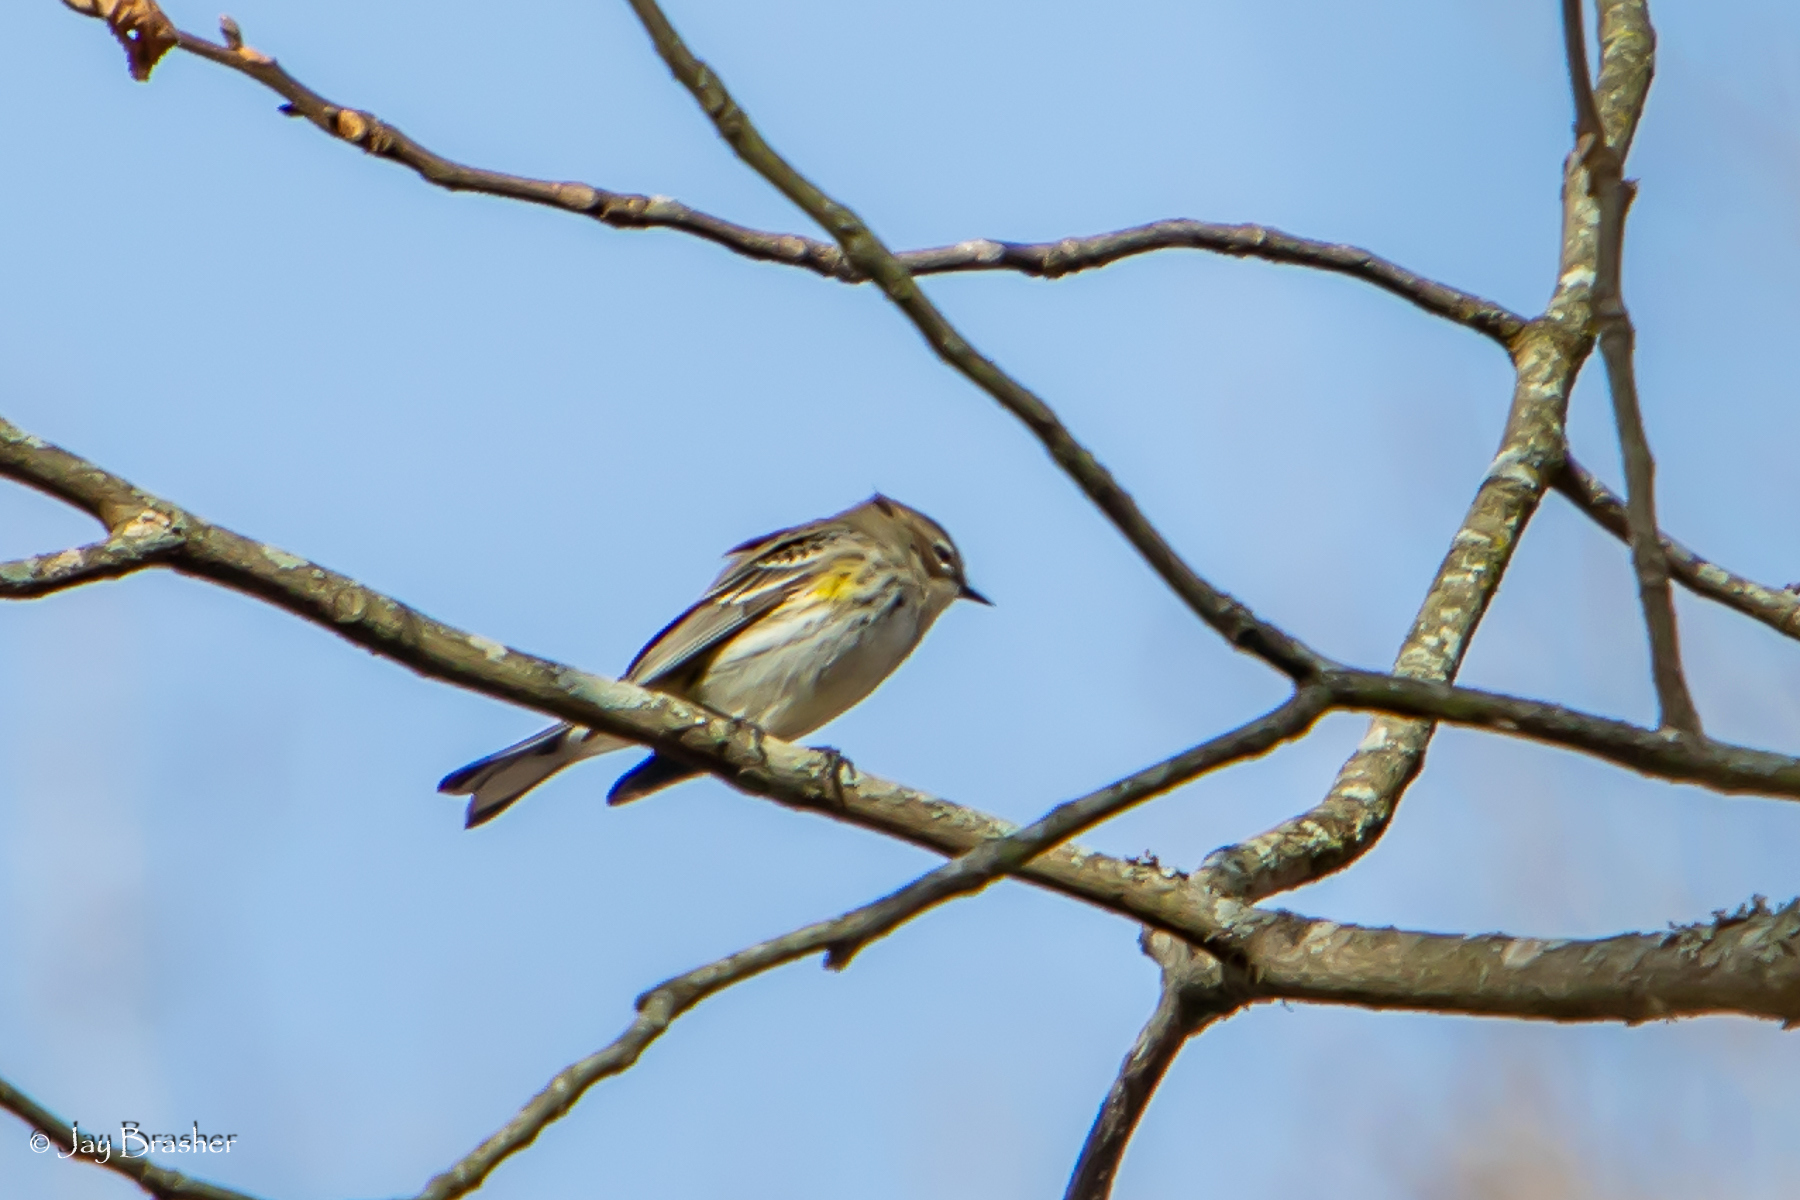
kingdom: Animalia
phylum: Chordata
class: Aves
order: Passeriformes
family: Parulidae
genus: Setophaga
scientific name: Setophaga coronata
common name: Myrtle warbler
